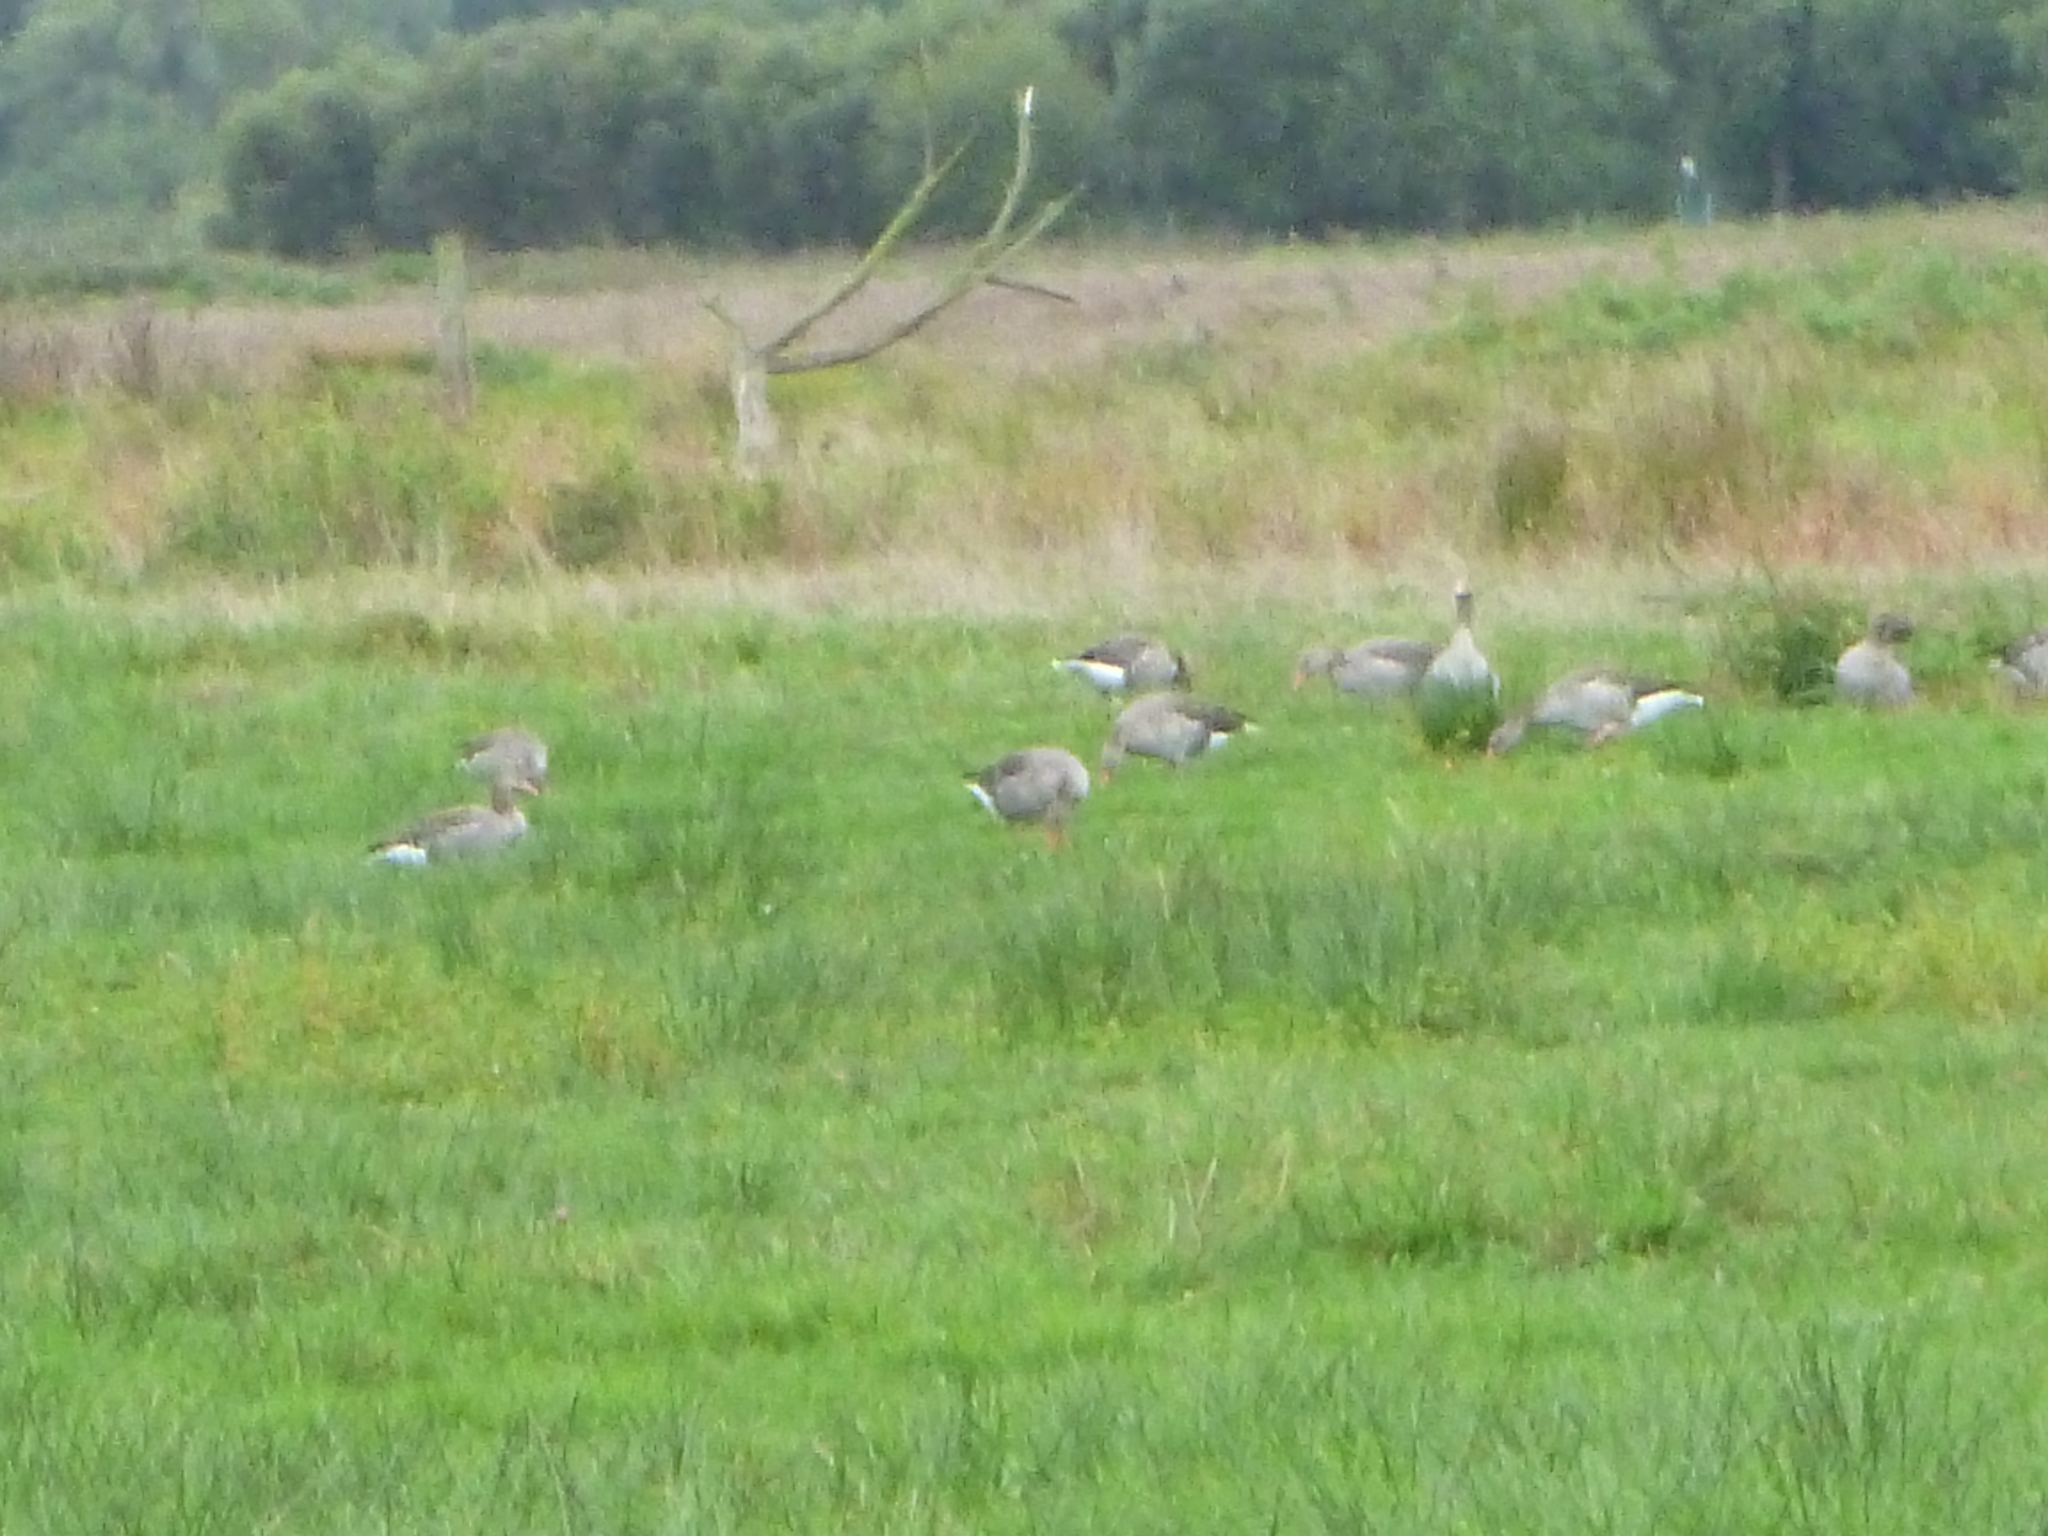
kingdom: Animalia
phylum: Chordata
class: Aves
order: Anseriformes
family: Anatidae
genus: Anser
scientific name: Anser anser
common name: Greylag goose
